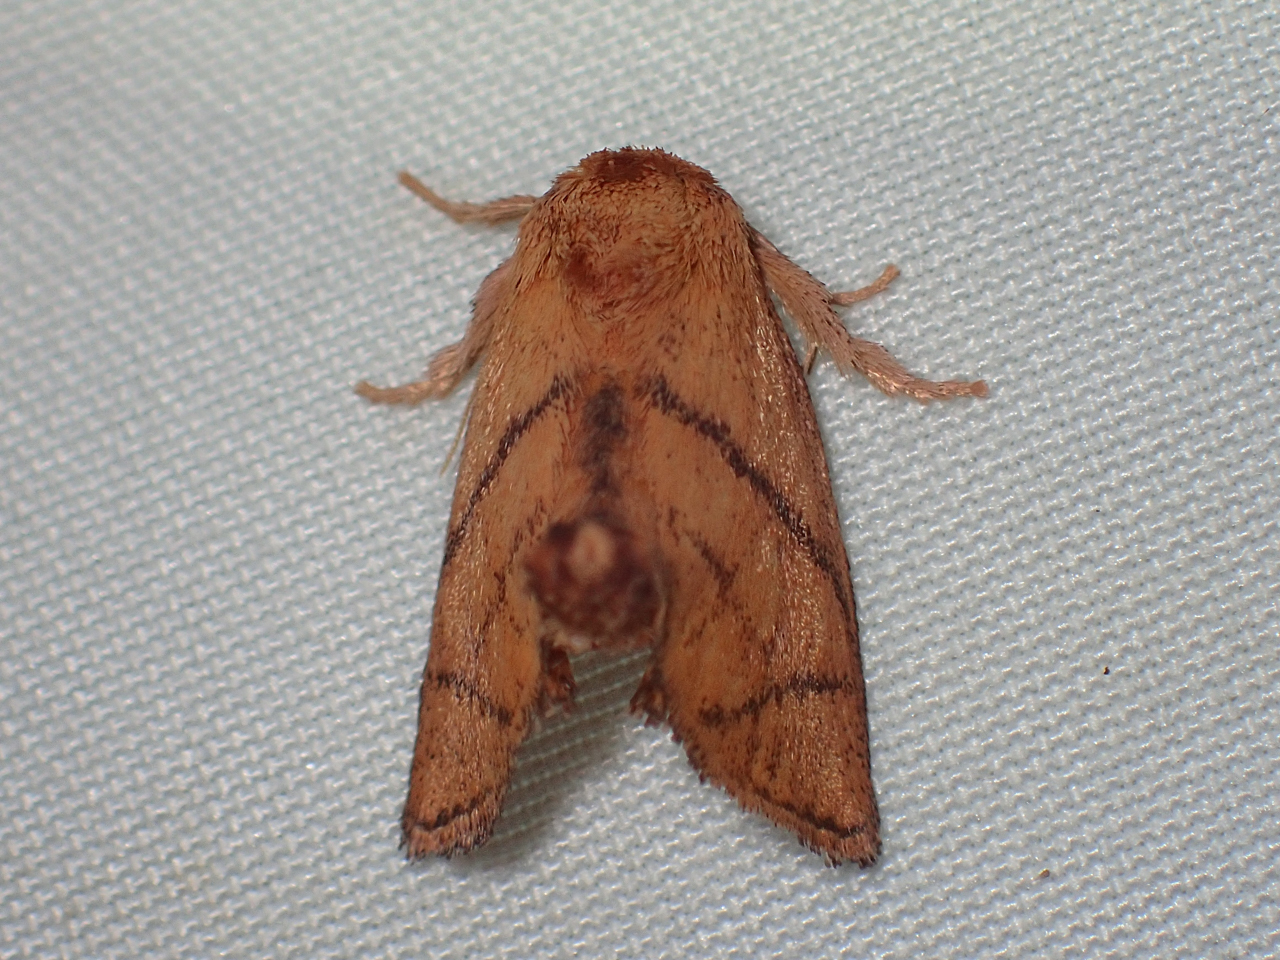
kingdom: Animalia
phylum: Arthropoda
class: Insecta
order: Lepidoptera
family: Limacodidae
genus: Apoda
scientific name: Apoda y-inversa
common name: Yellow-collared slug moth
